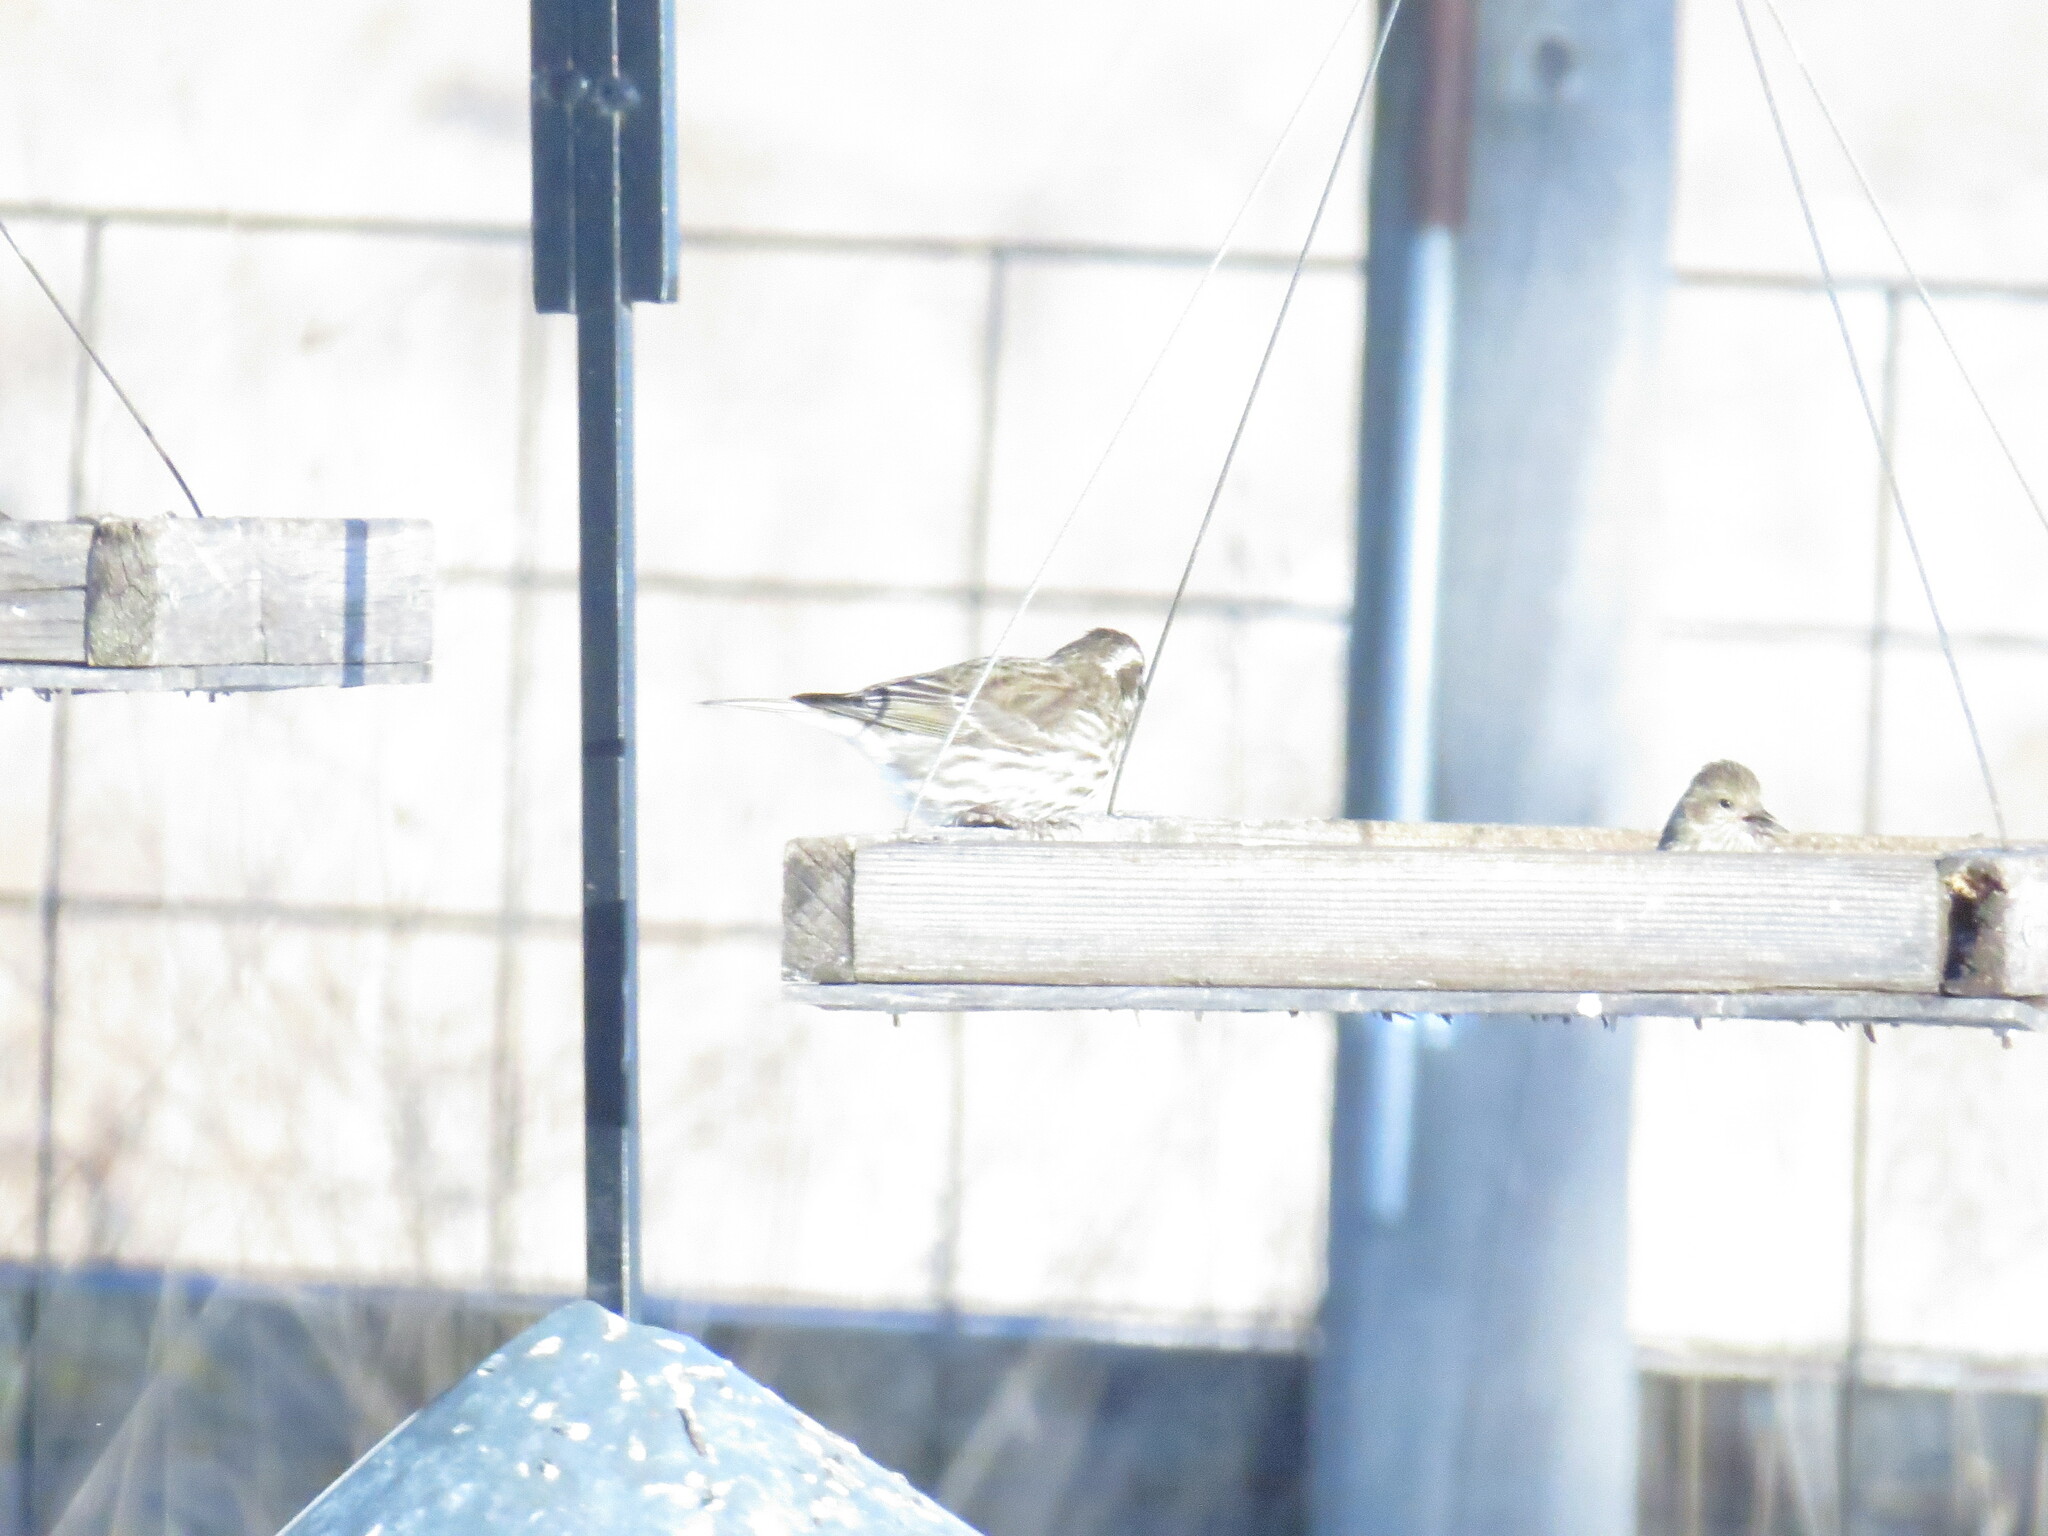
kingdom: Animalia
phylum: Chordata
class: Aves
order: Passeriformes
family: Fringillidae
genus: Haemorhous
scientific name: Haemorhous purpureus
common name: Purple finch
